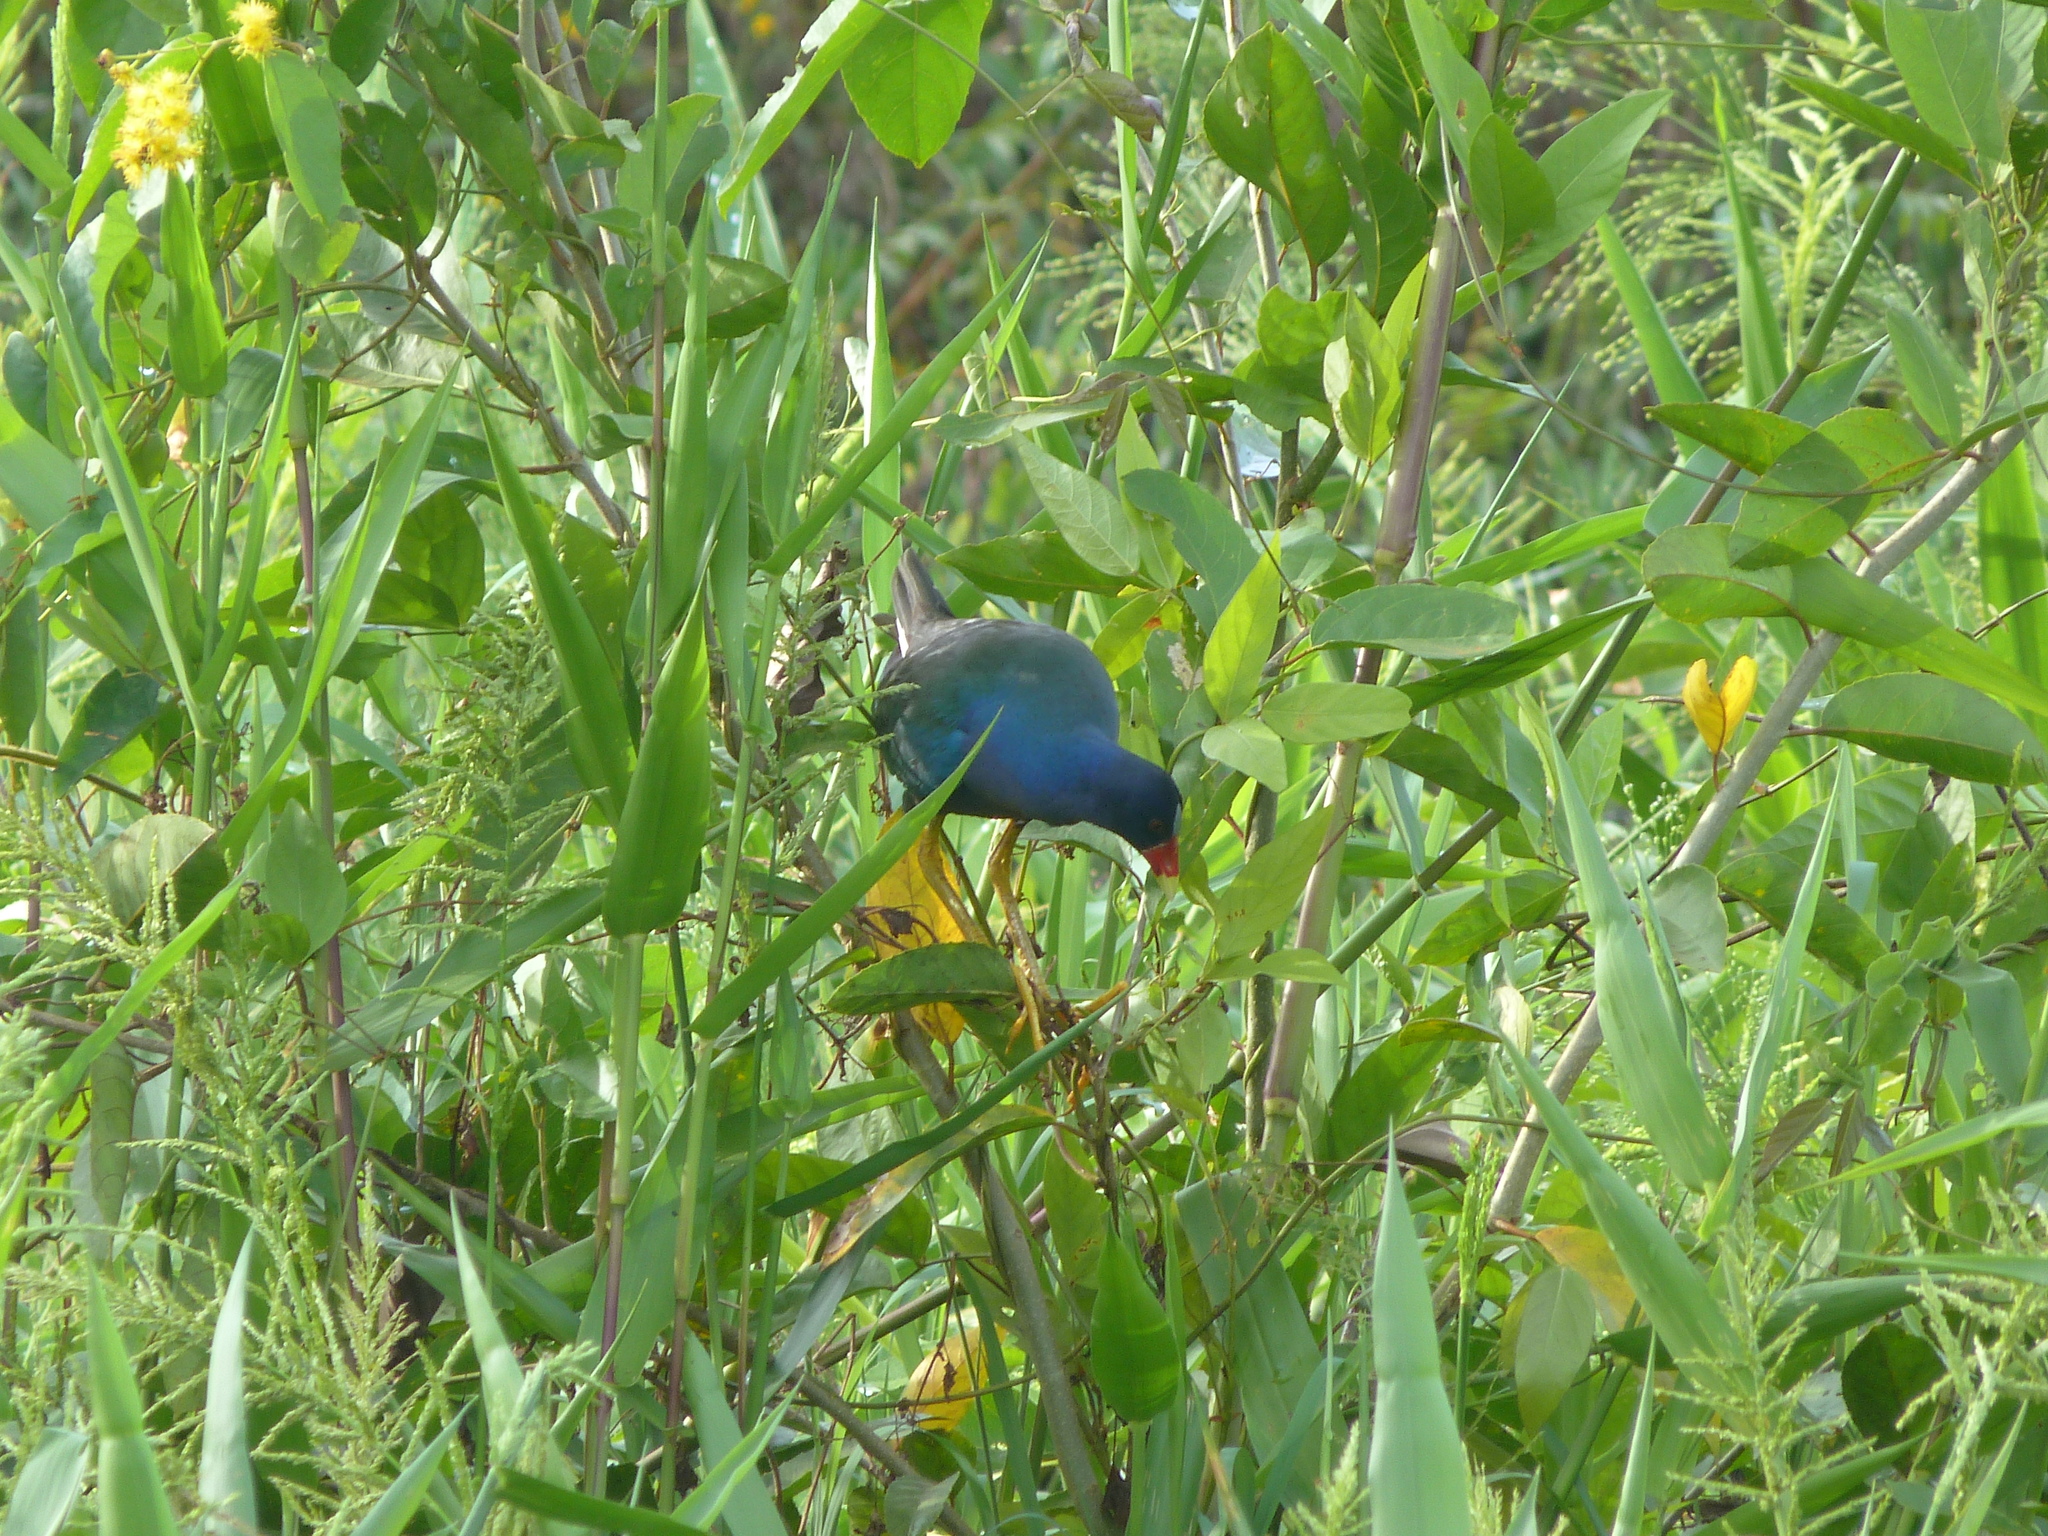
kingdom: Animalia
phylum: Chordata
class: Aves
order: Gruiformes
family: Rallidae
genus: Porphyrio
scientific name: Porphyrio martinica
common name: Purple gallinule
